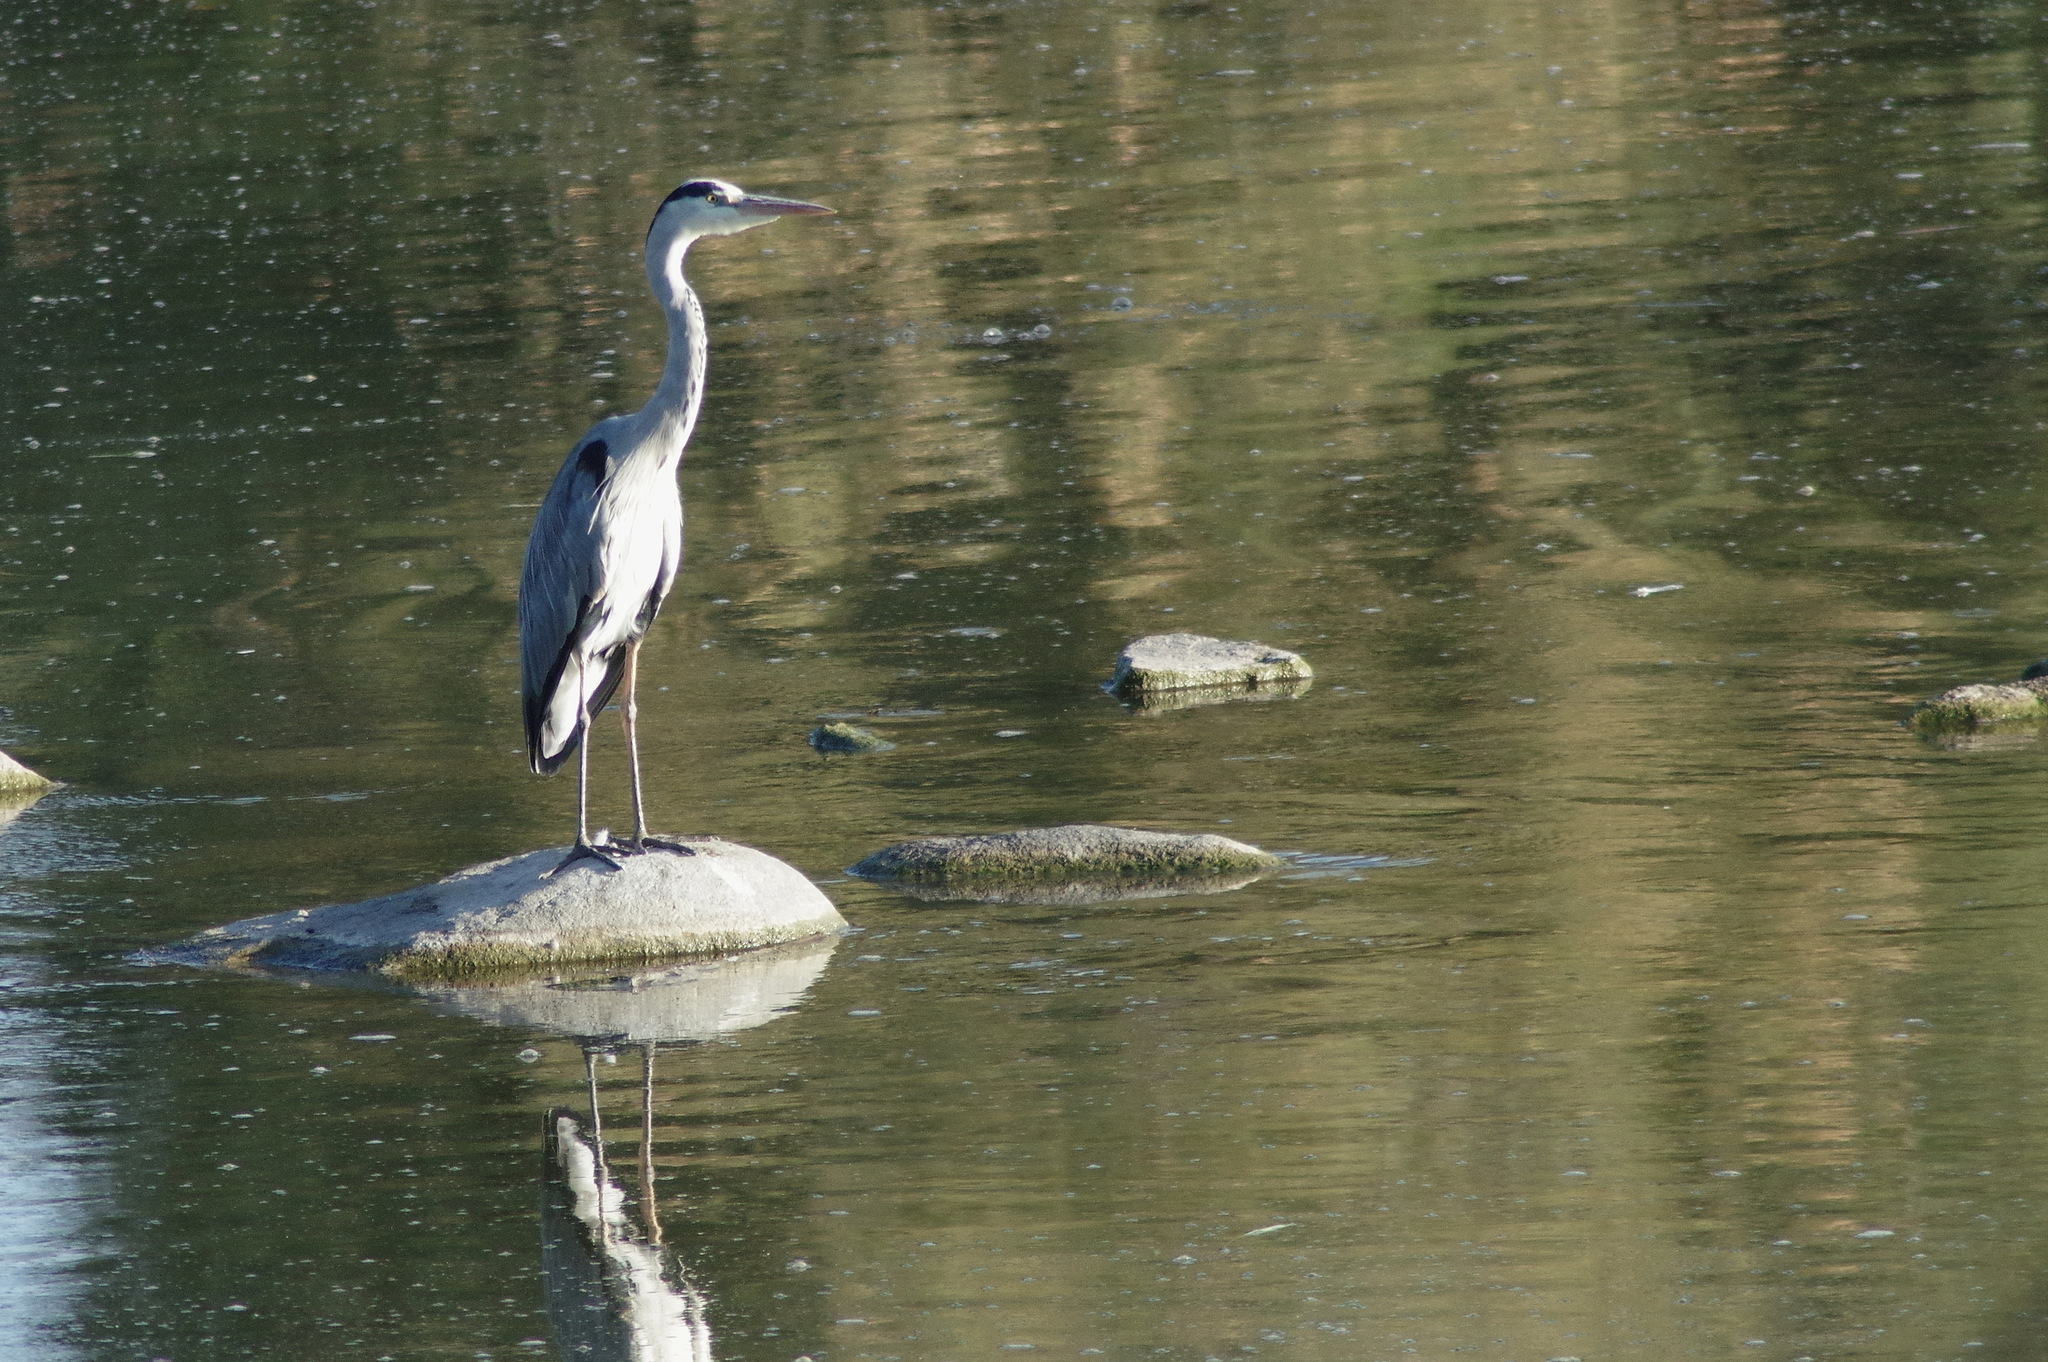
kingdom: Animalia
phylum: Chordata
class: Aves
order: Pelecaniformes
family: Ardeidae
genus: Ardea
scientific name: Ardea cinerea
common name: Grey heron
